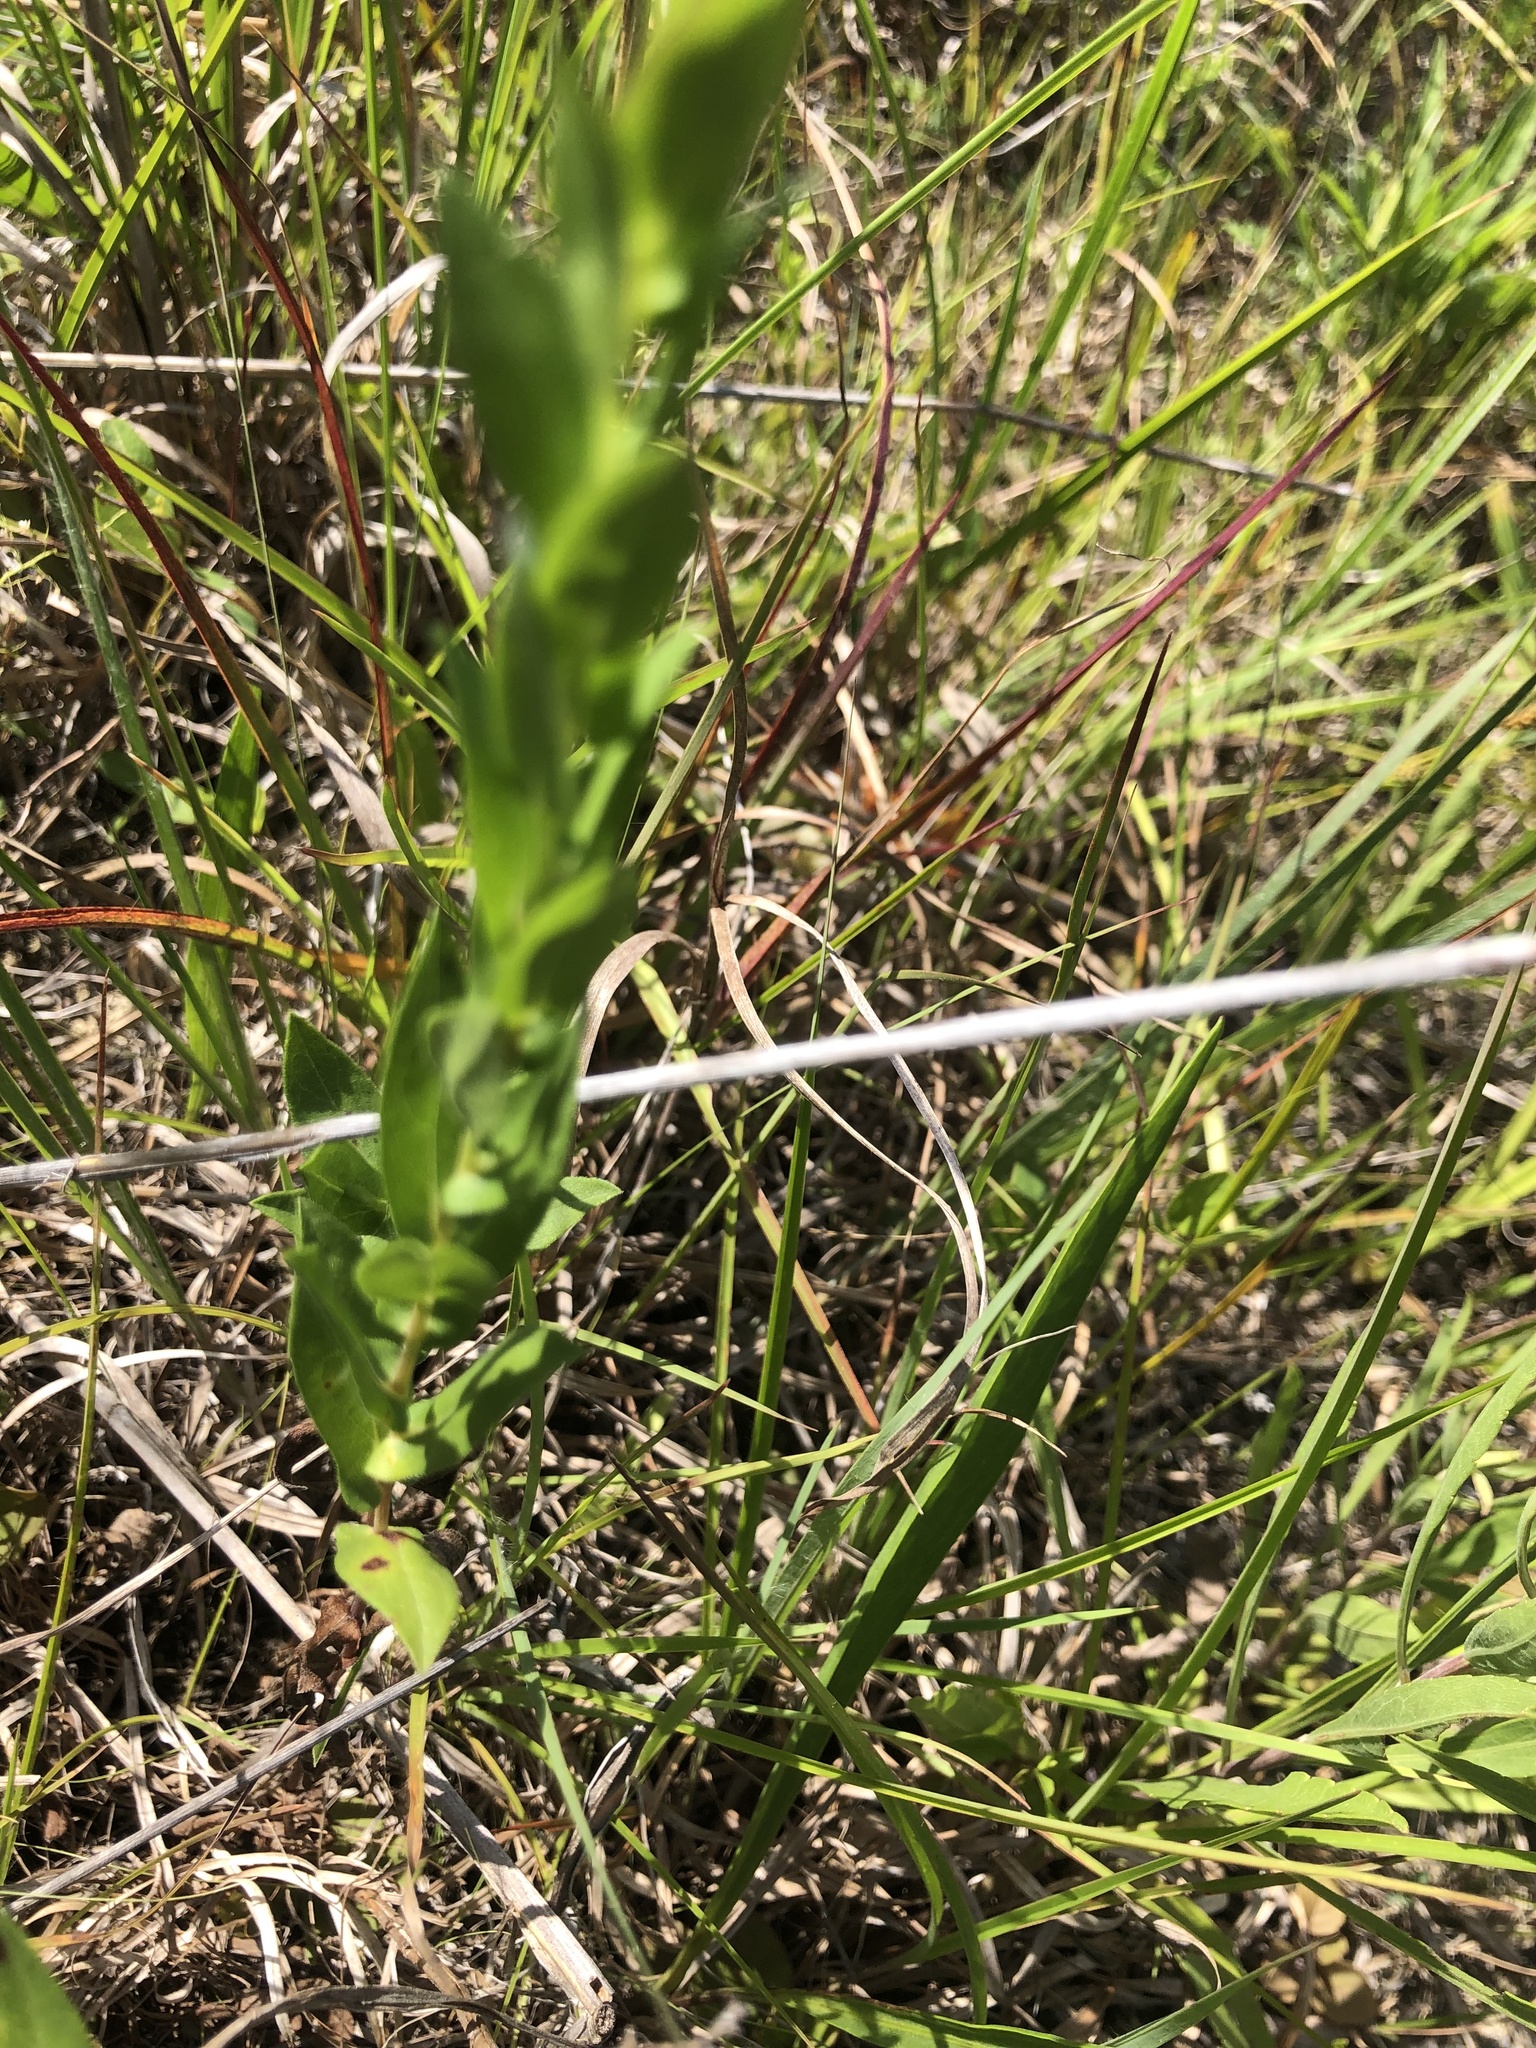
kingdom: Plantae
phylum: Tracheophyta
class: Magnoliopsida
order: Asterales
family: Asteraceae
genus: Symphyotrichum
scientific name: Symphyotrichum patens
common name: Late purple aster
